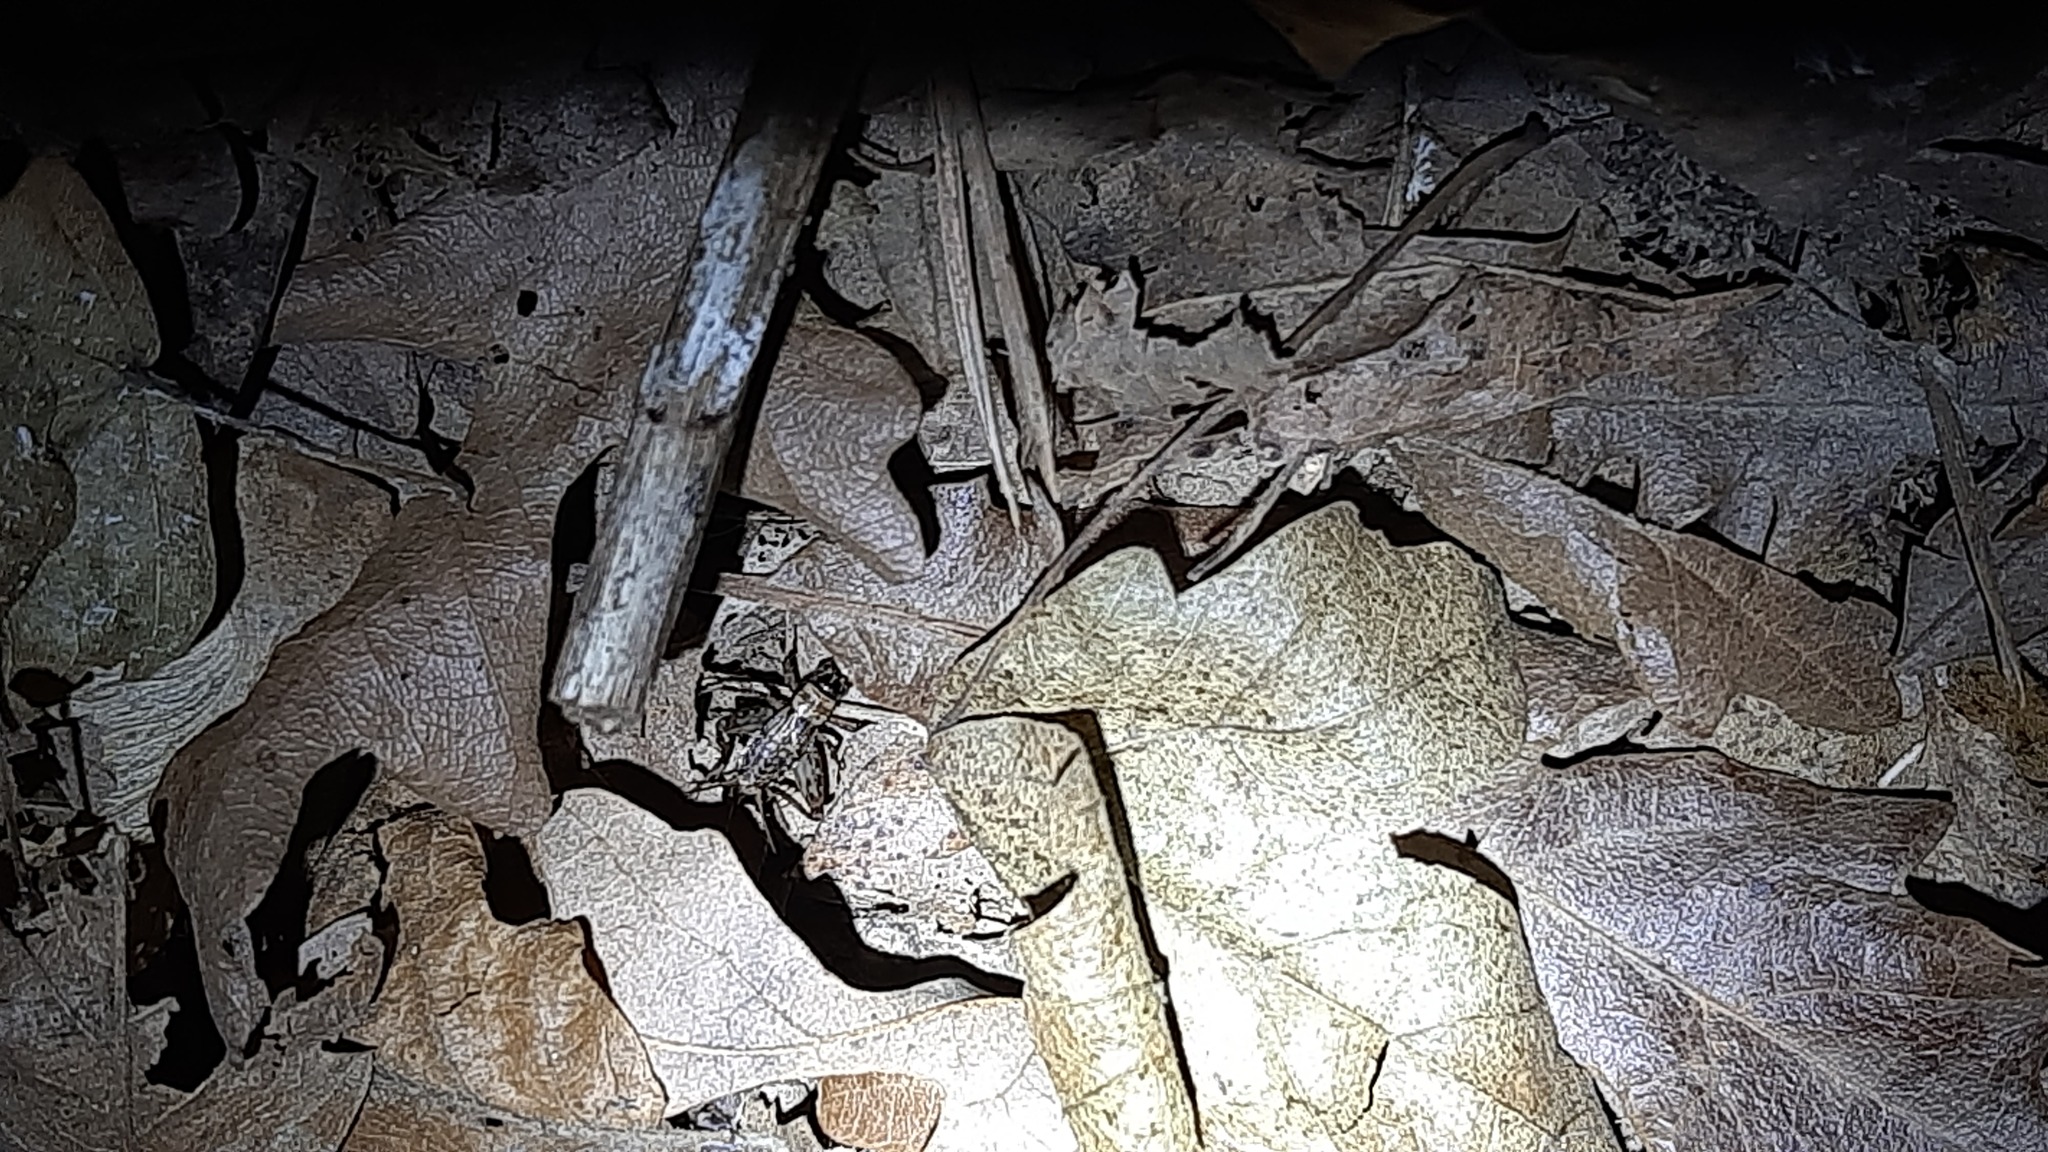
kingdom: Animalia
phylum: Arthropoda
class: Insecta
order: Orthoptera
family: Trigonidiidae
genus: Nemobius
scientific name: Nemobius sylvestris
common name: Wood-cricket
